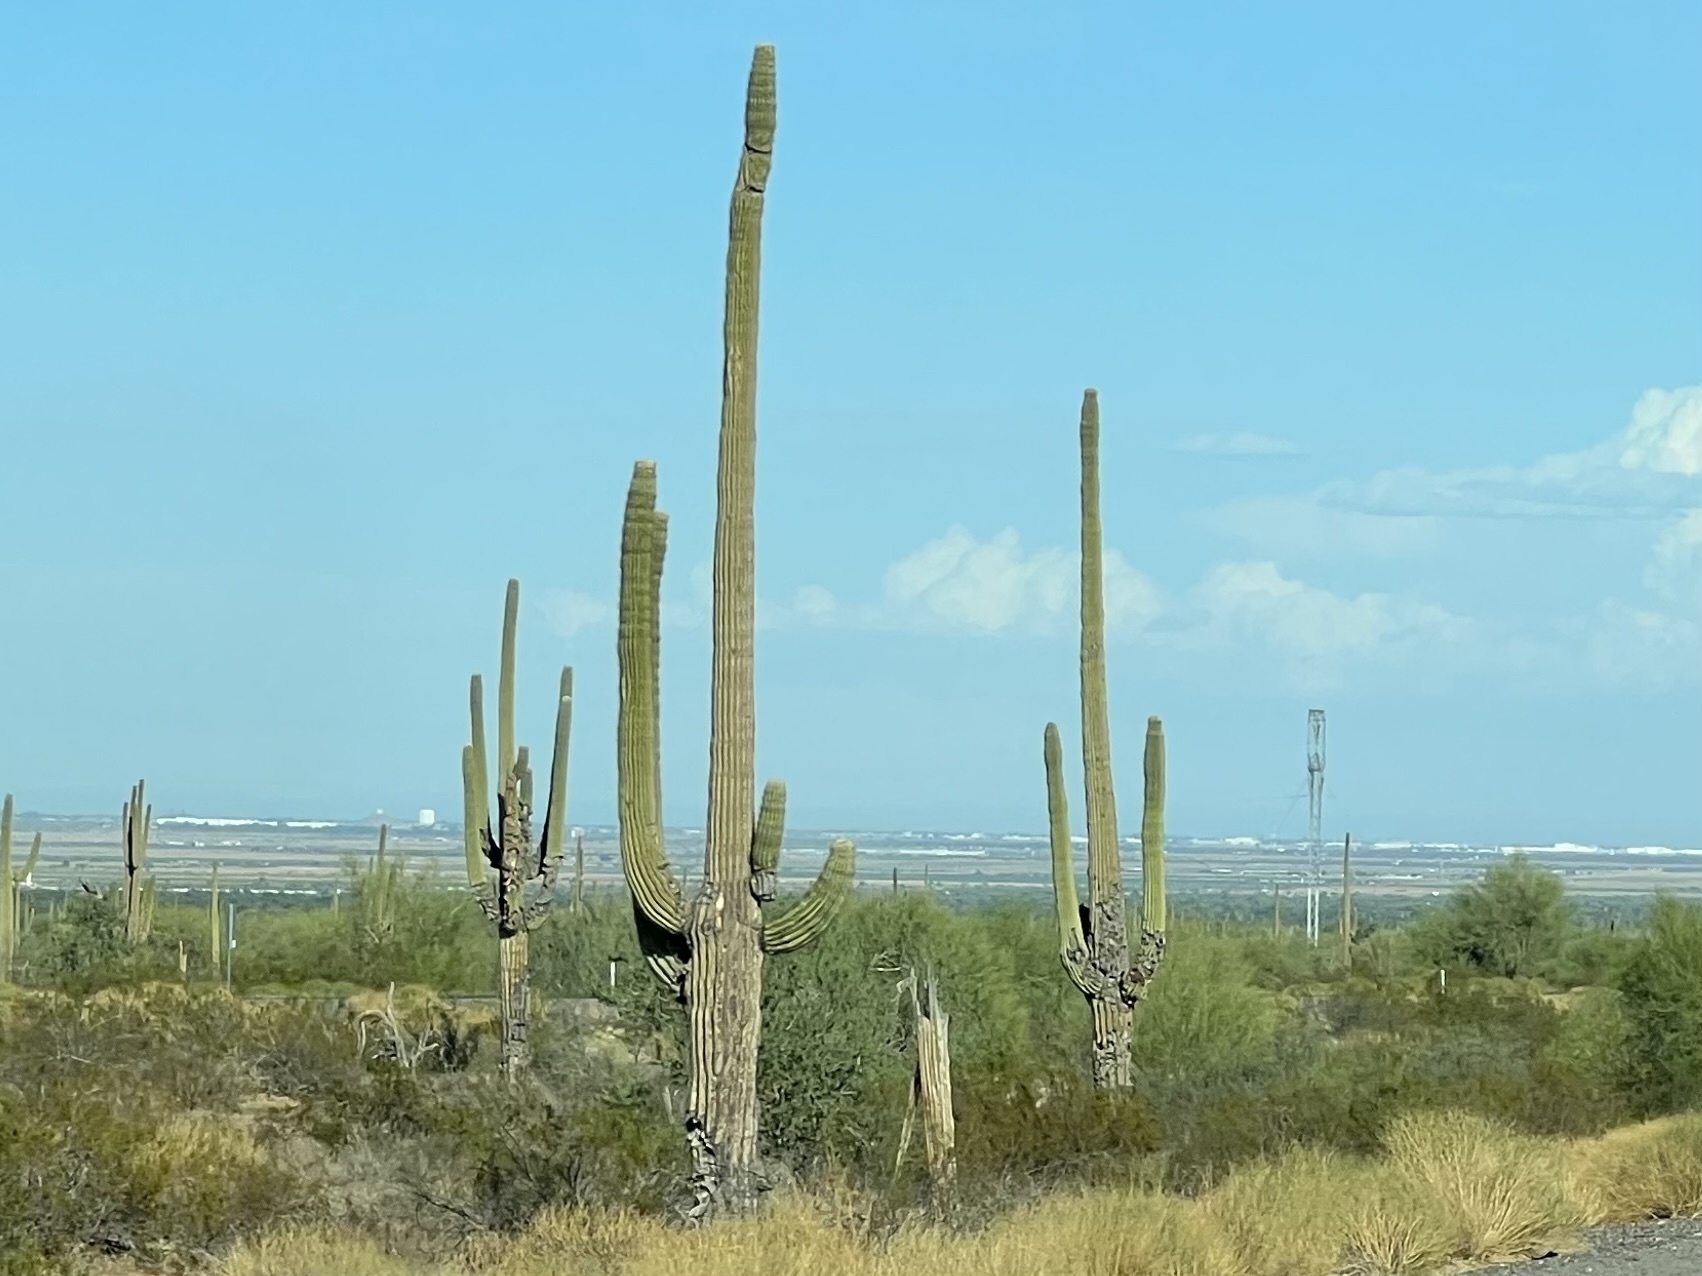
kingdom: Plantae
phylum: Tracheophyta
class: Magnoliopsida
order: Caryophyllales
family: Cactaceae
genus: Carnegiea
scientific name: Carnegiea gigantea
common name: Saguaro
